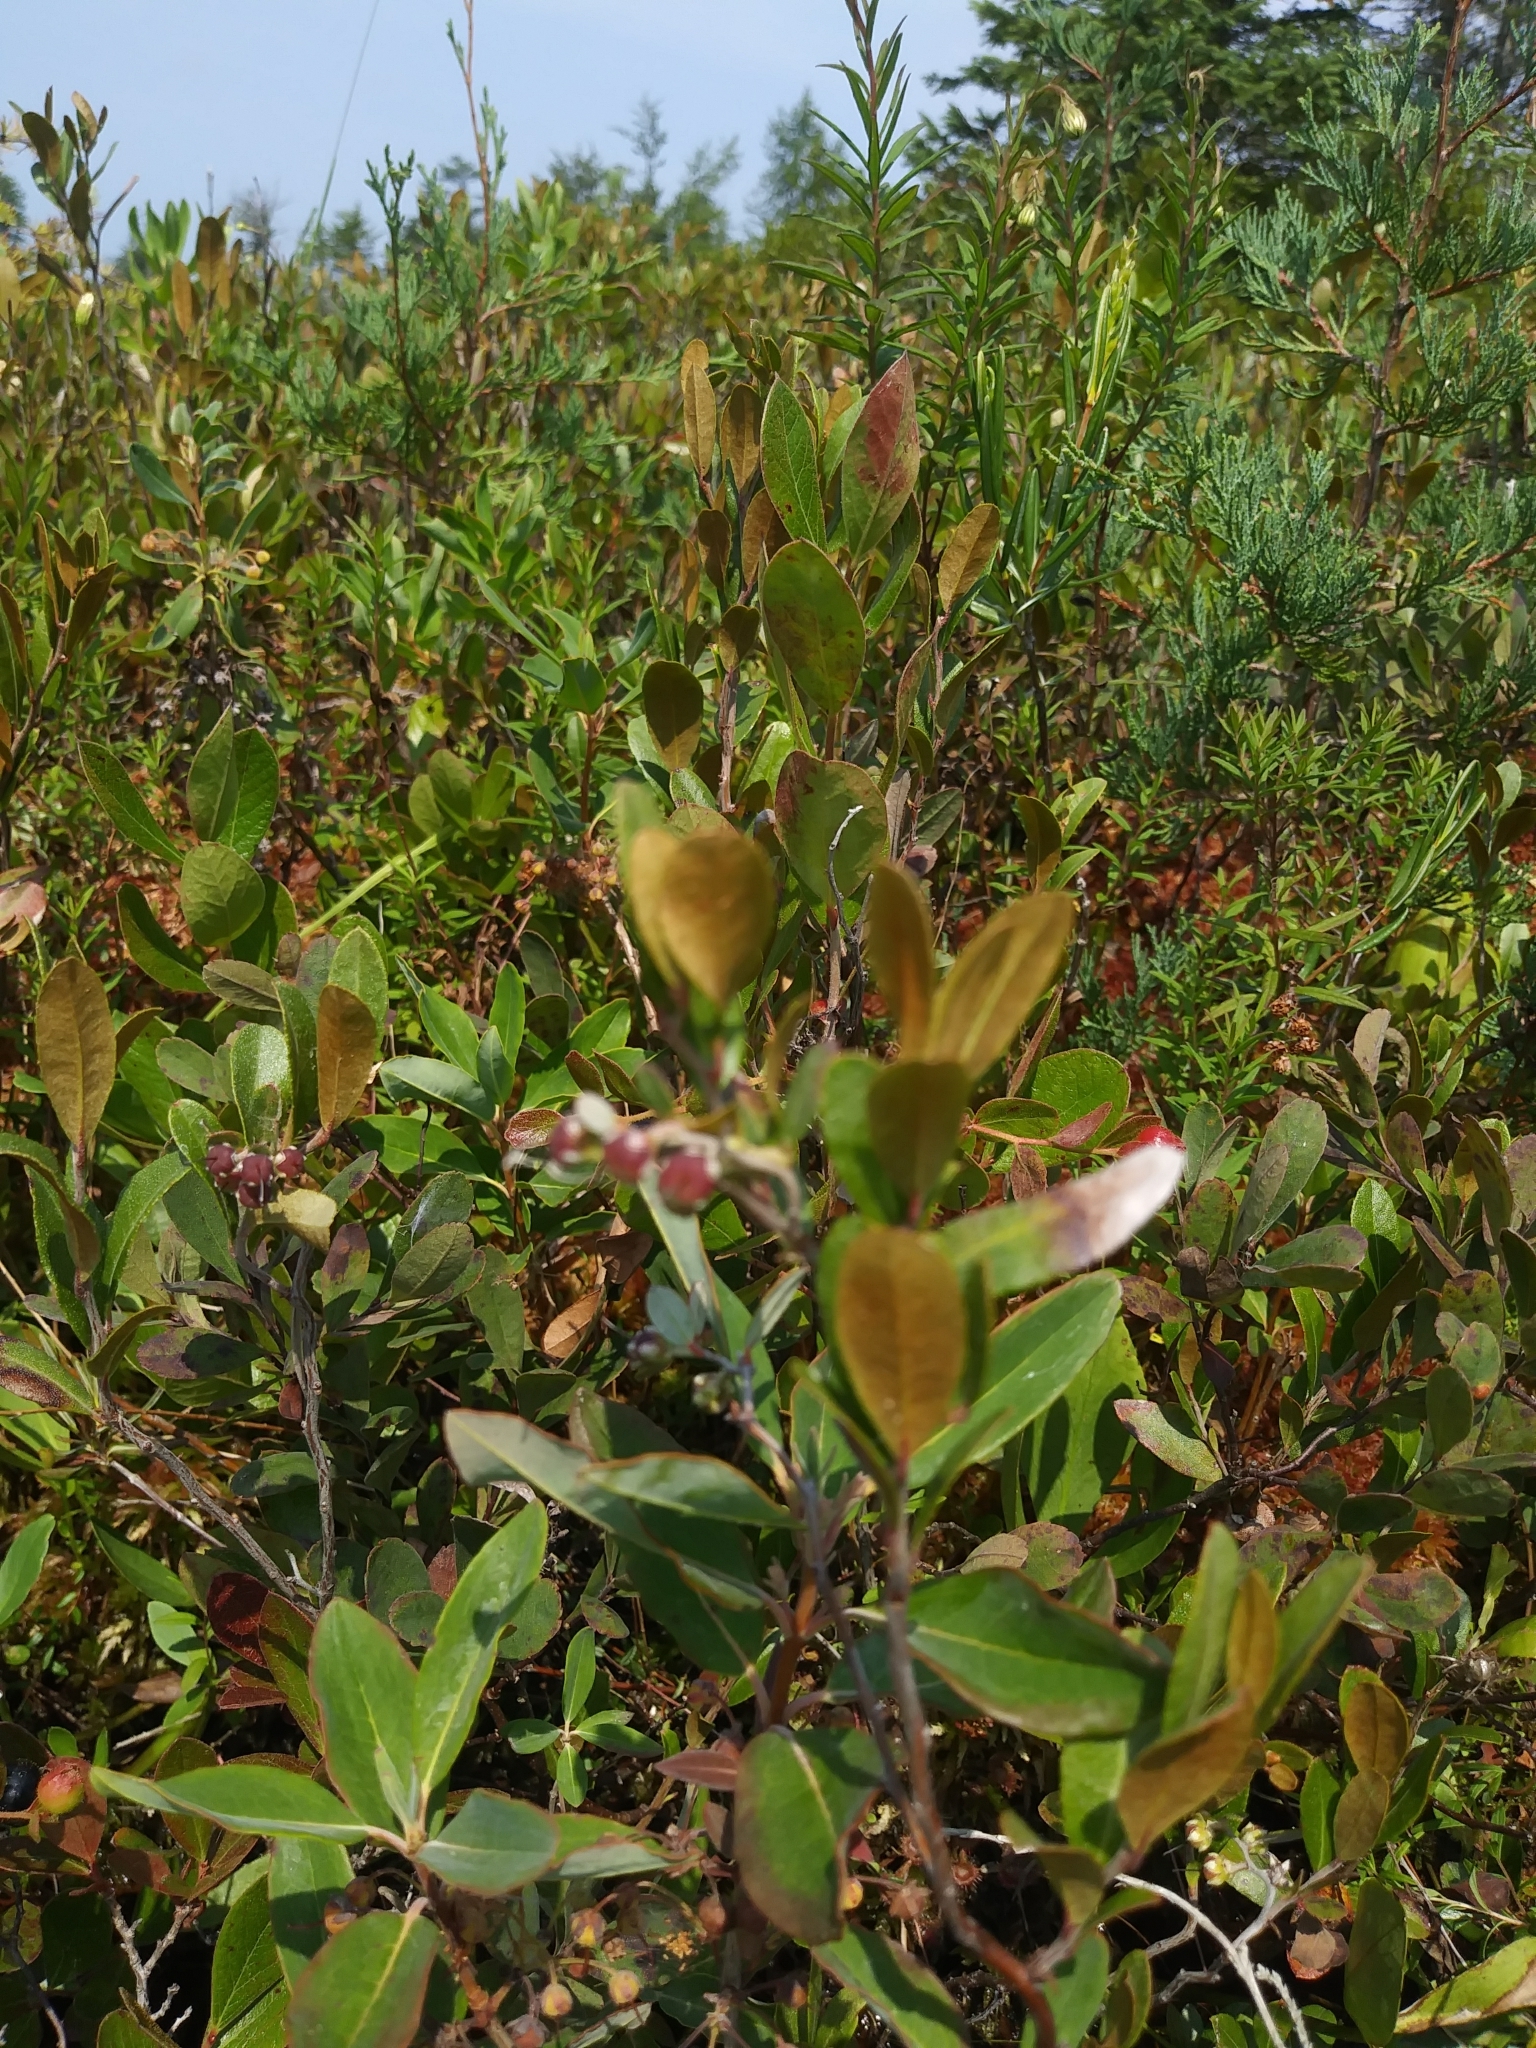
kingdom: Plantae
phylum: Tracheophyta
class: Magnoliopsida
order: Ericales
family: Ericaceae
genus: Chamaedaphne
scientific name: Chamaedaphne calyculata
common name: Leatherleaf
